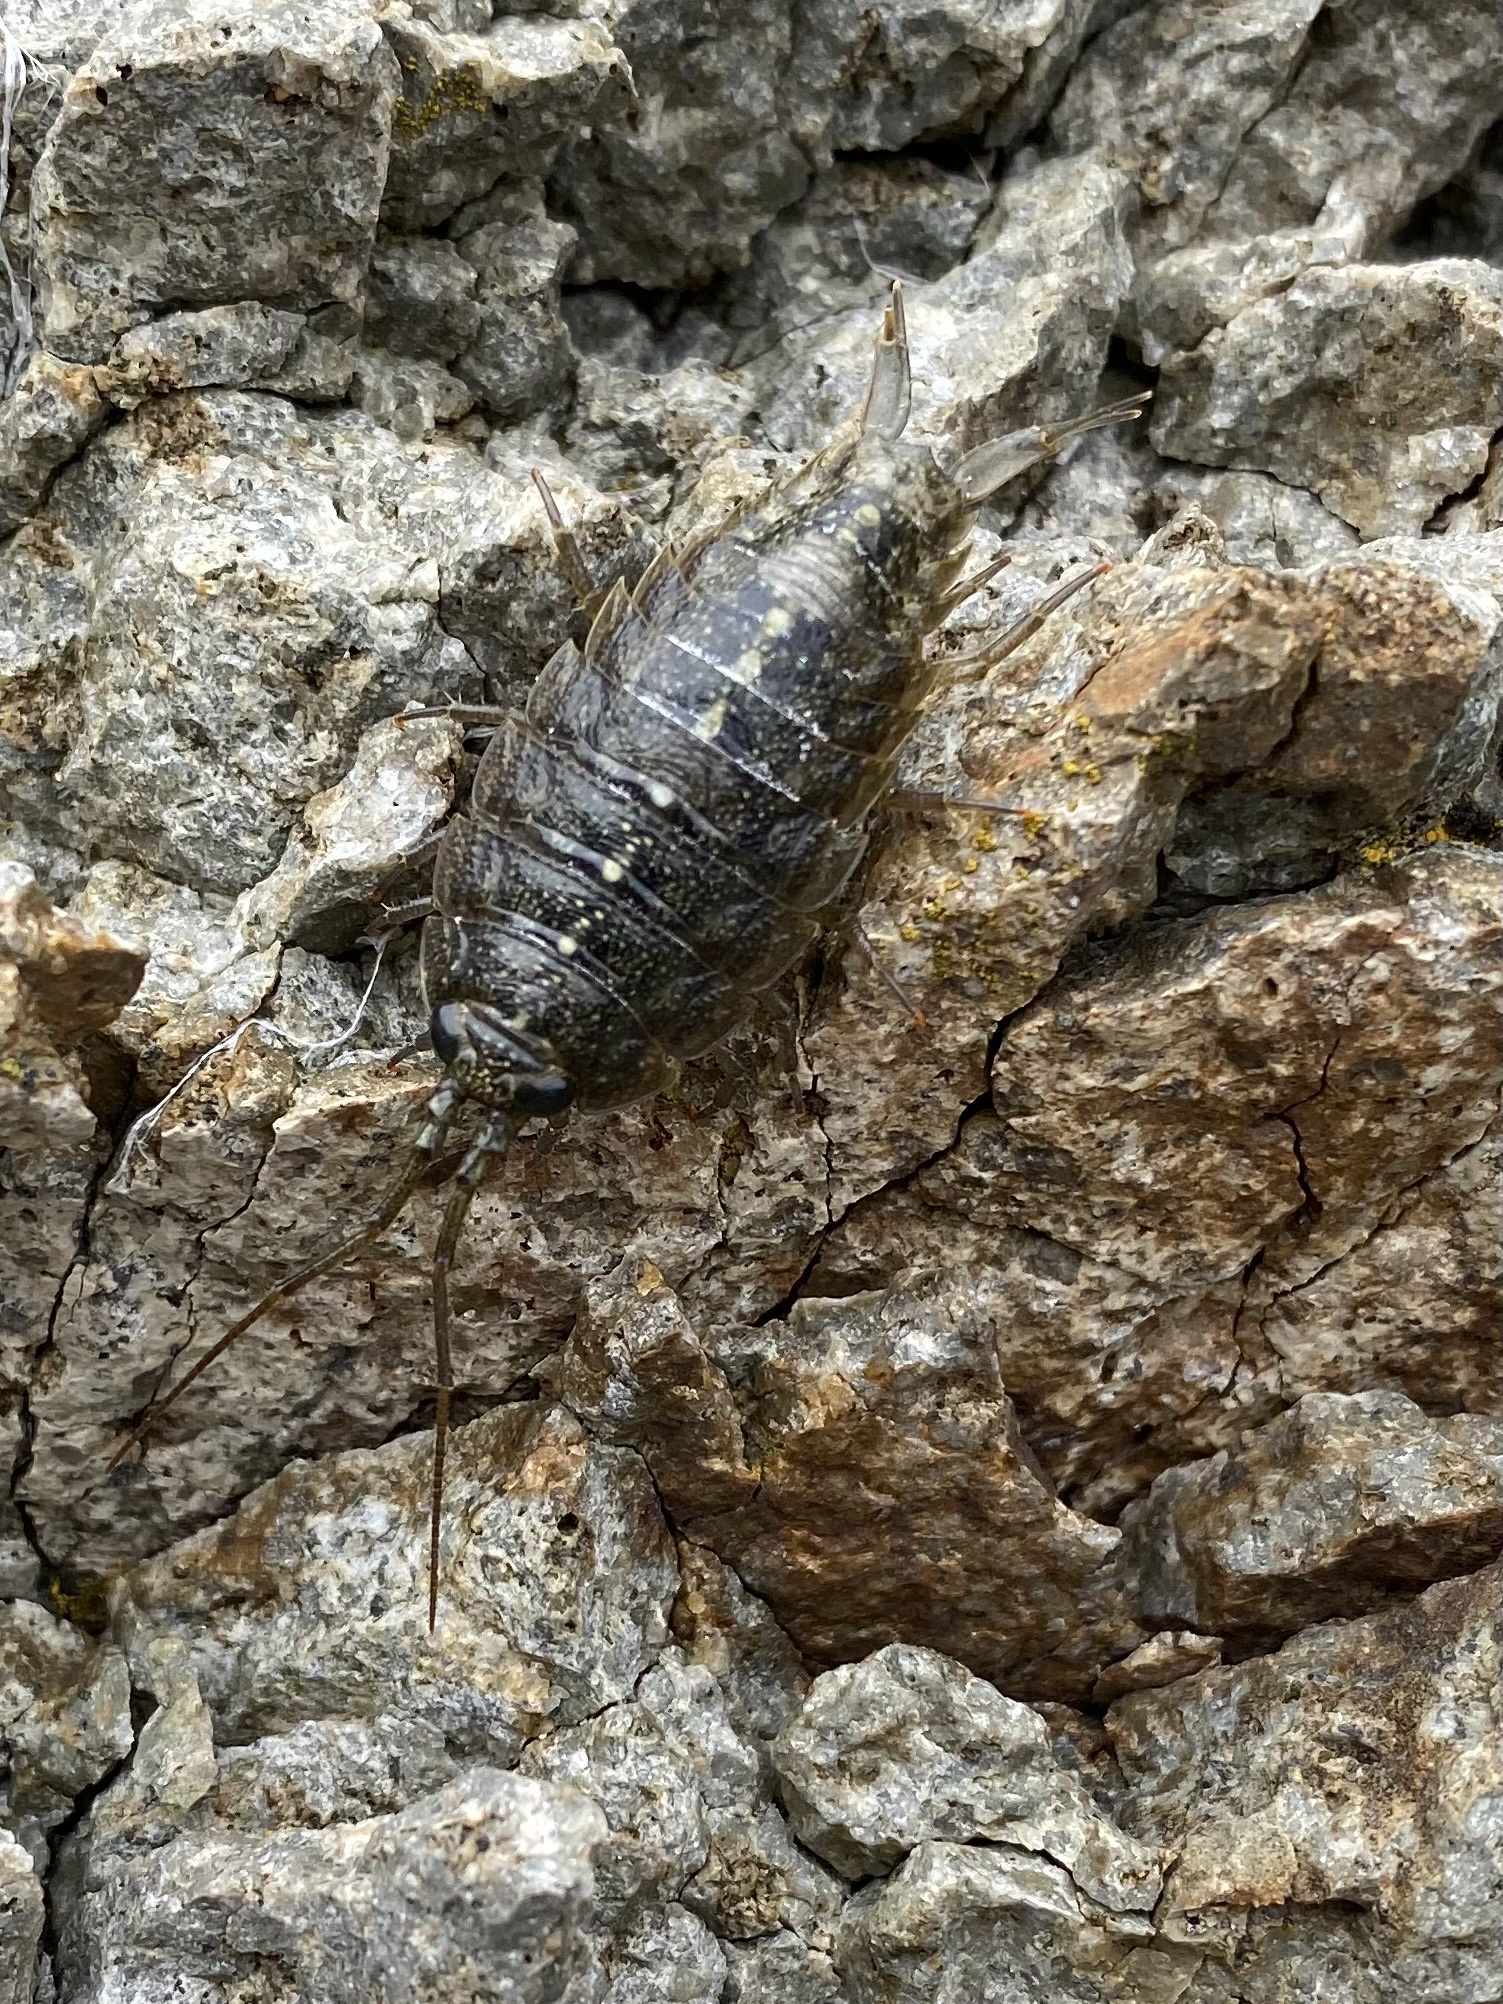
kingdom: Animalia
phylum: Arthropoda
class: Malacostraca
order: Isopoda
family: Ligiidae
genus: Ligia
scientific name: Ligia cinerascens
